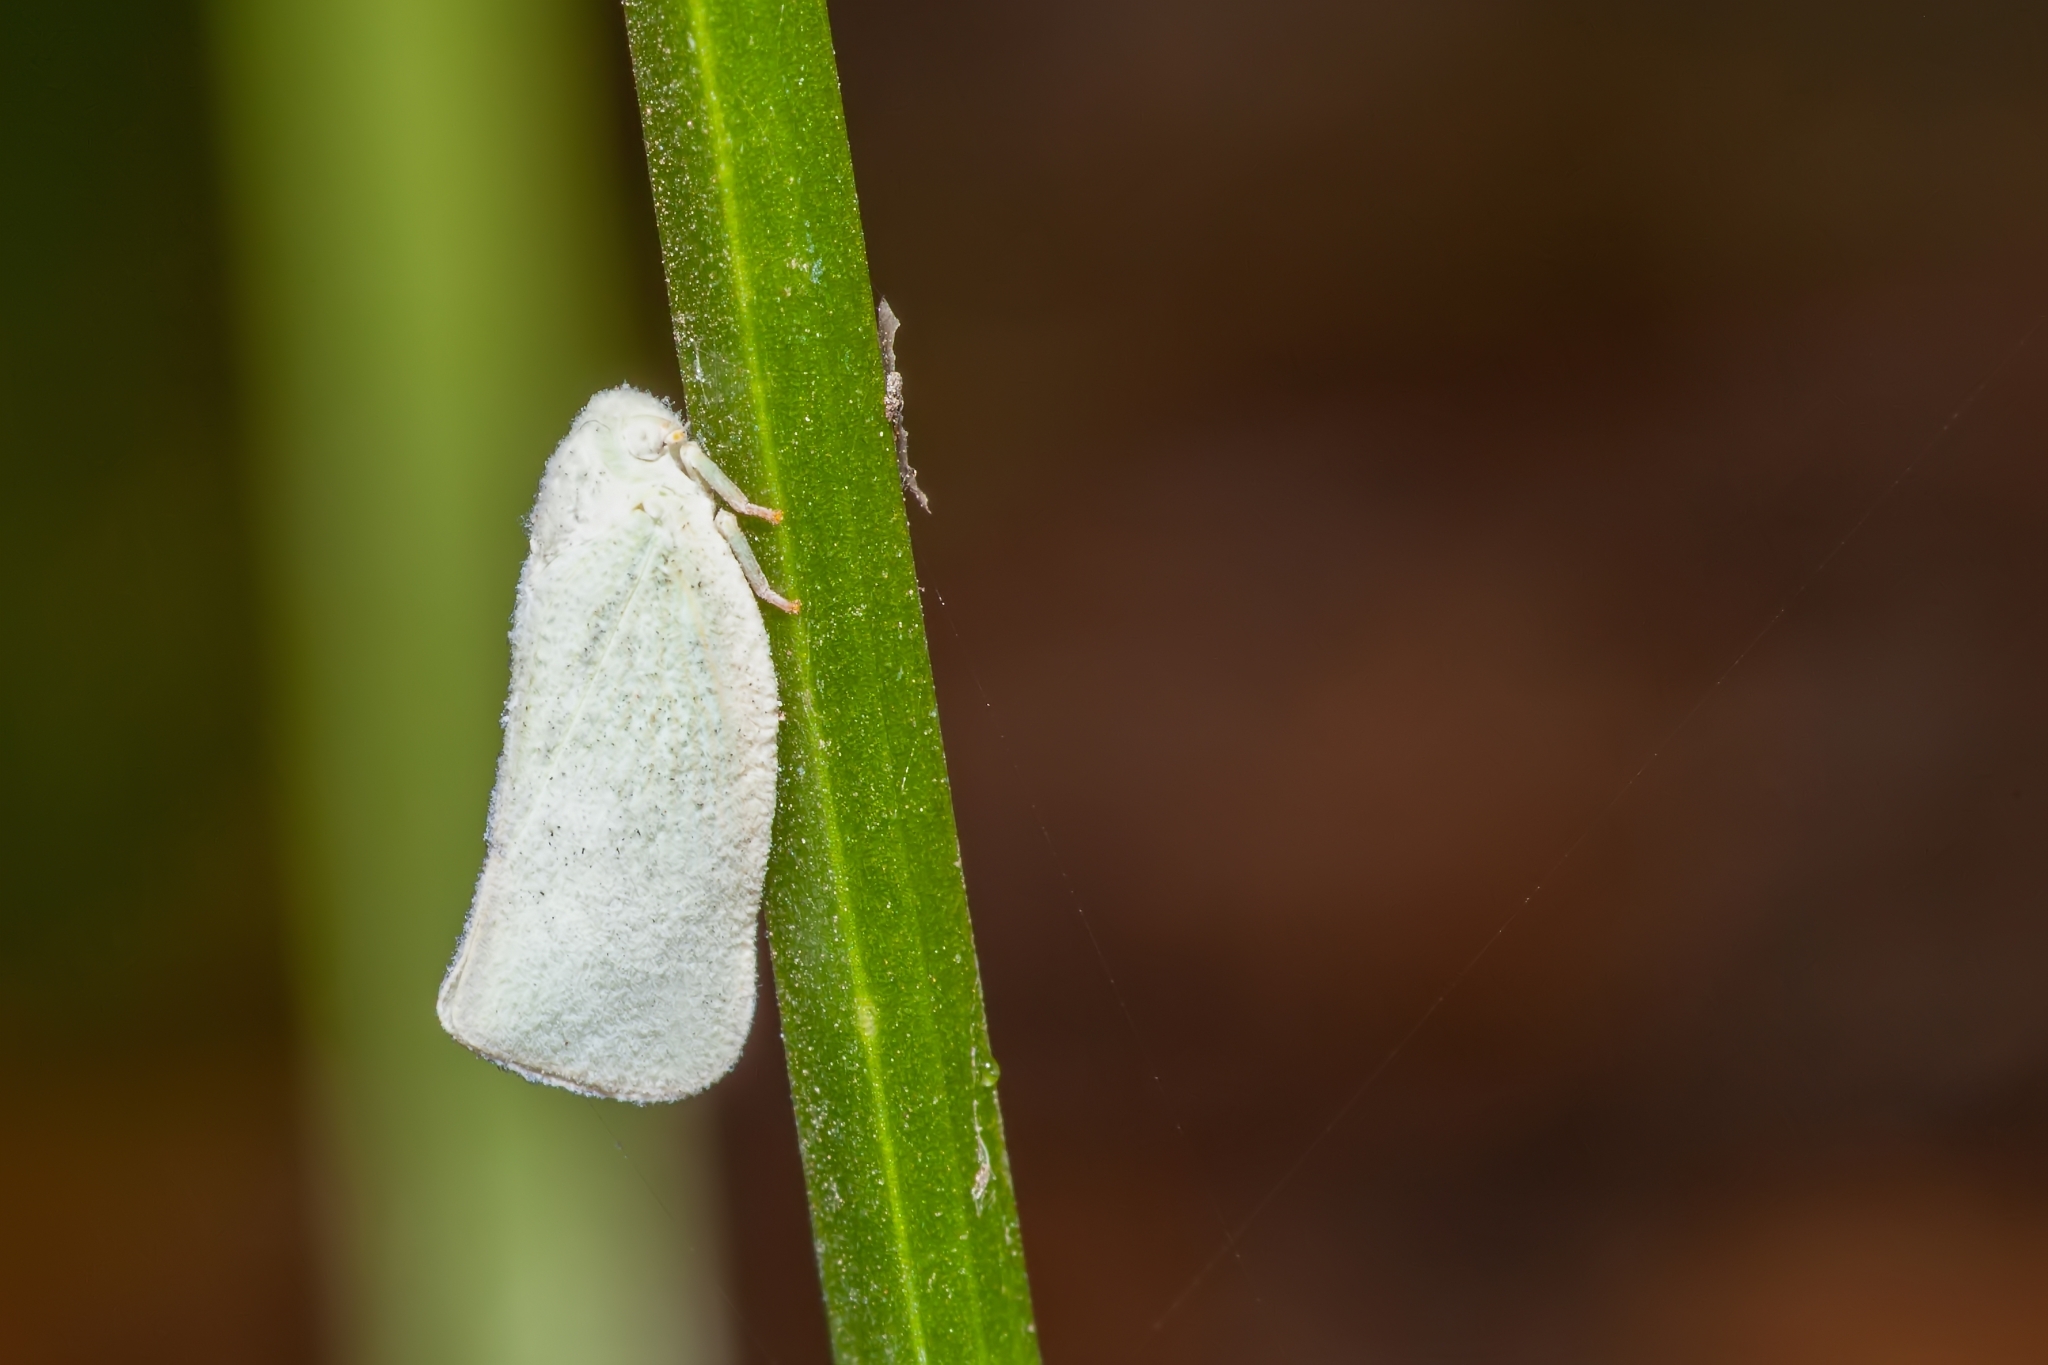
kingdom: Animalia
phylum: Arthropoda
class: Insecta
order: Hemiptera
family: Flatidae
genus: Flatormenis
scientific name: Flatormenis proxima
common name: Northern flatid planthopper
